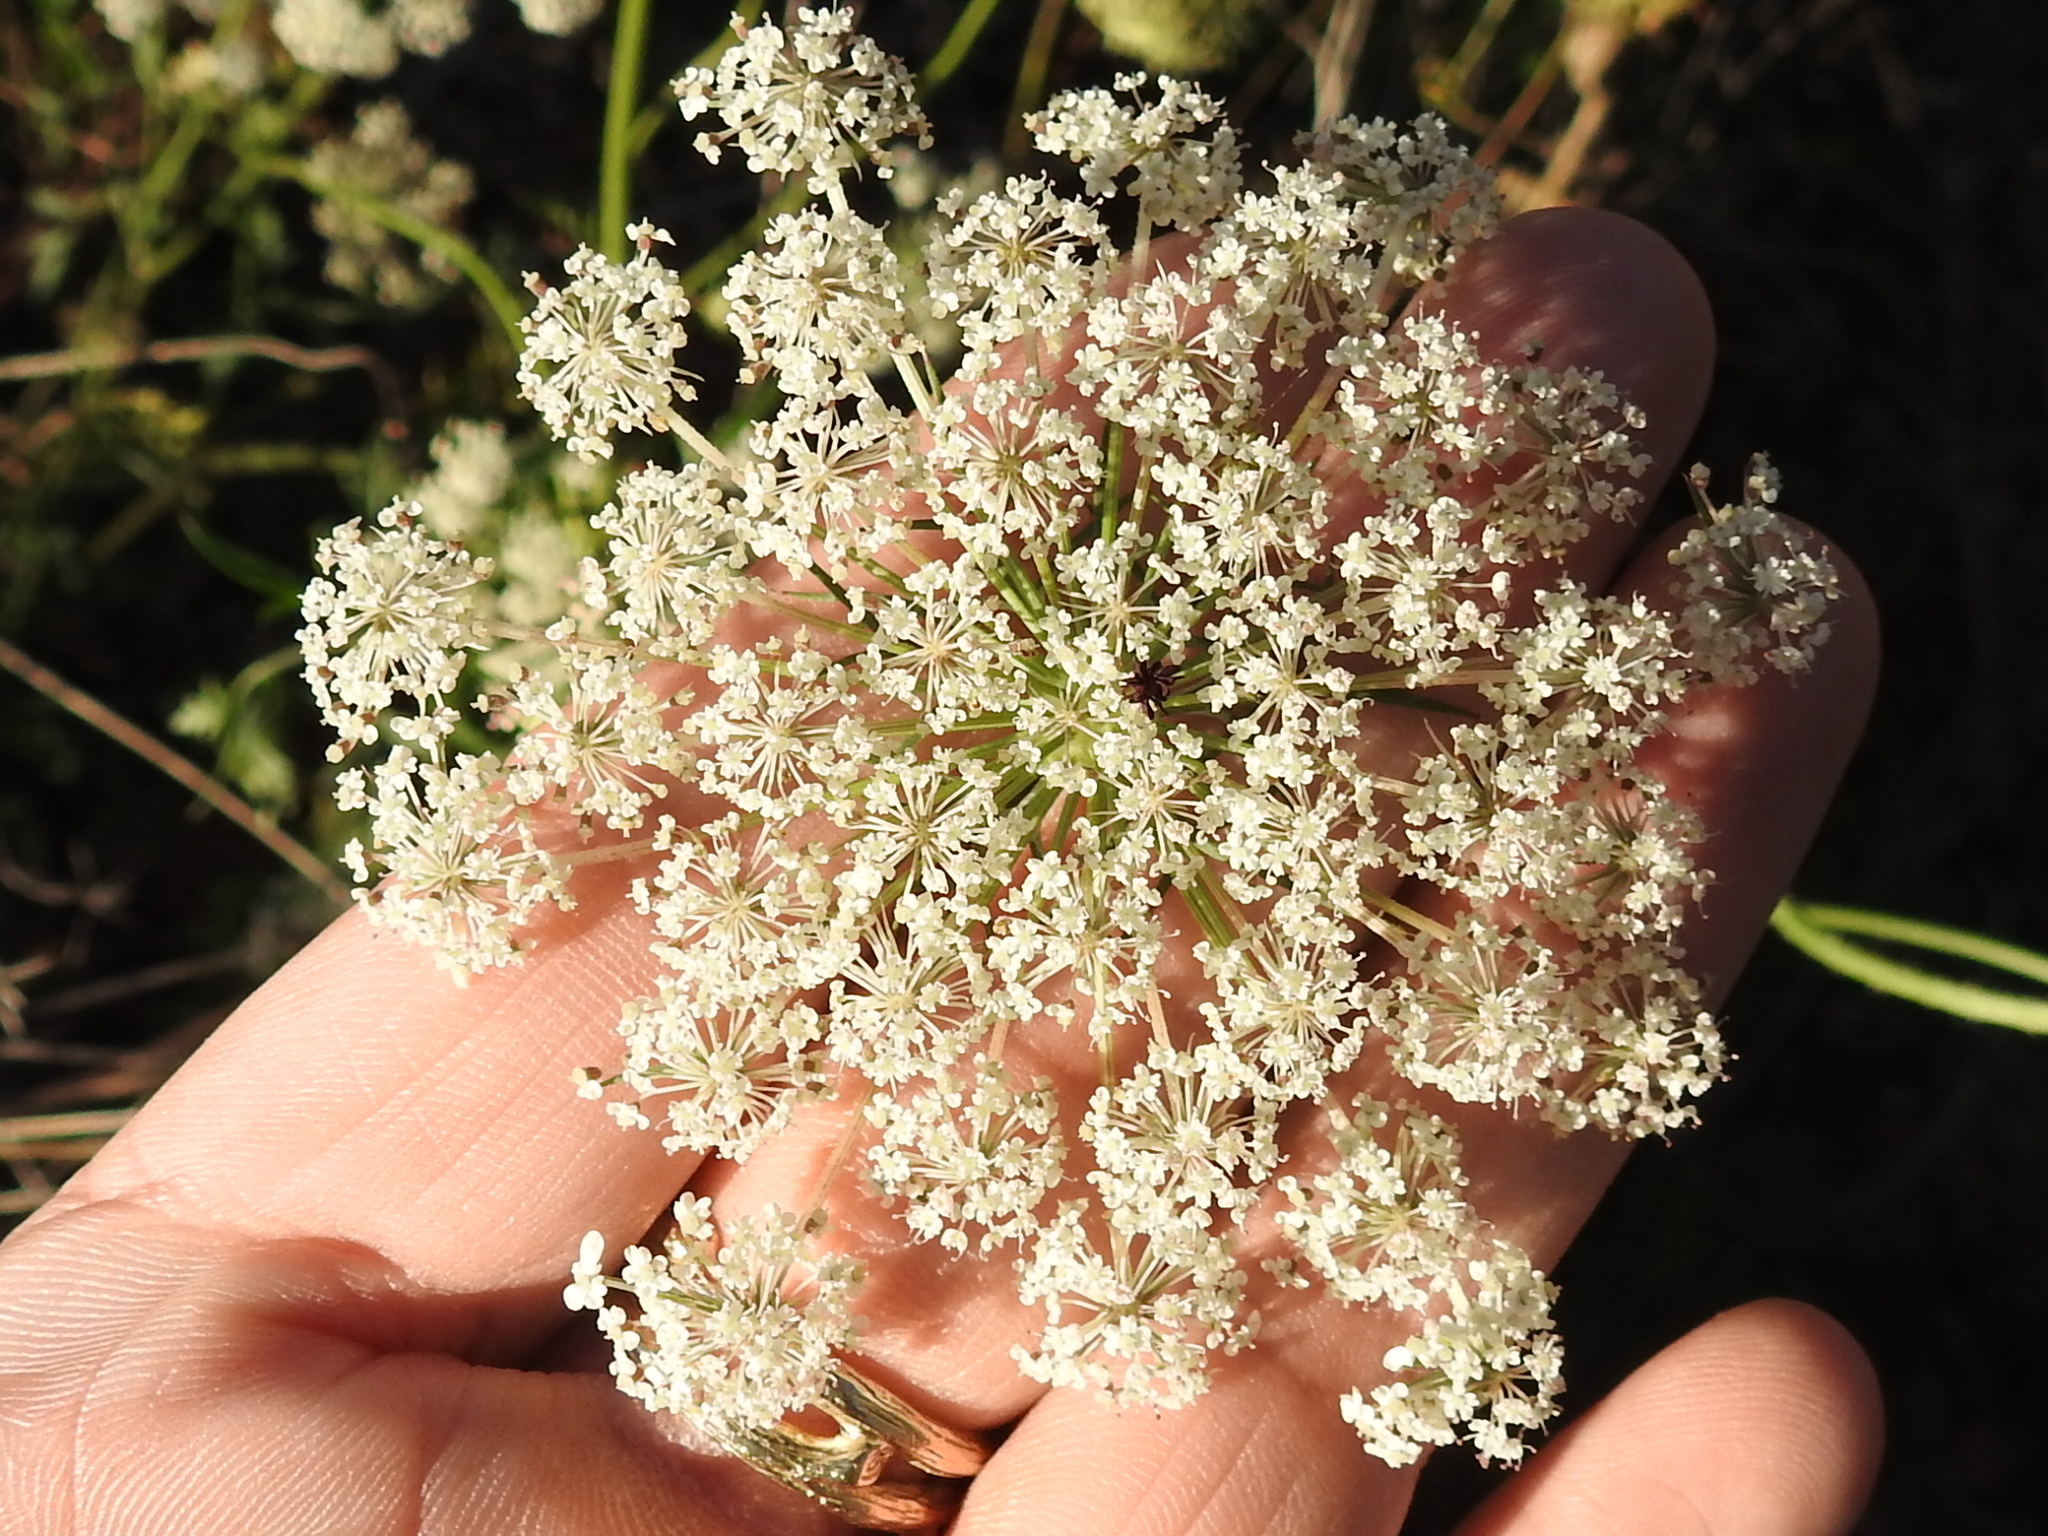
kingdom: Plantae
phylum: Tracheophyta
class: Magnoliopsida
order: Apiales
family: Apiaceae
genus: Daucus
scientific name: Daucus carota
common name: Wild carrot
